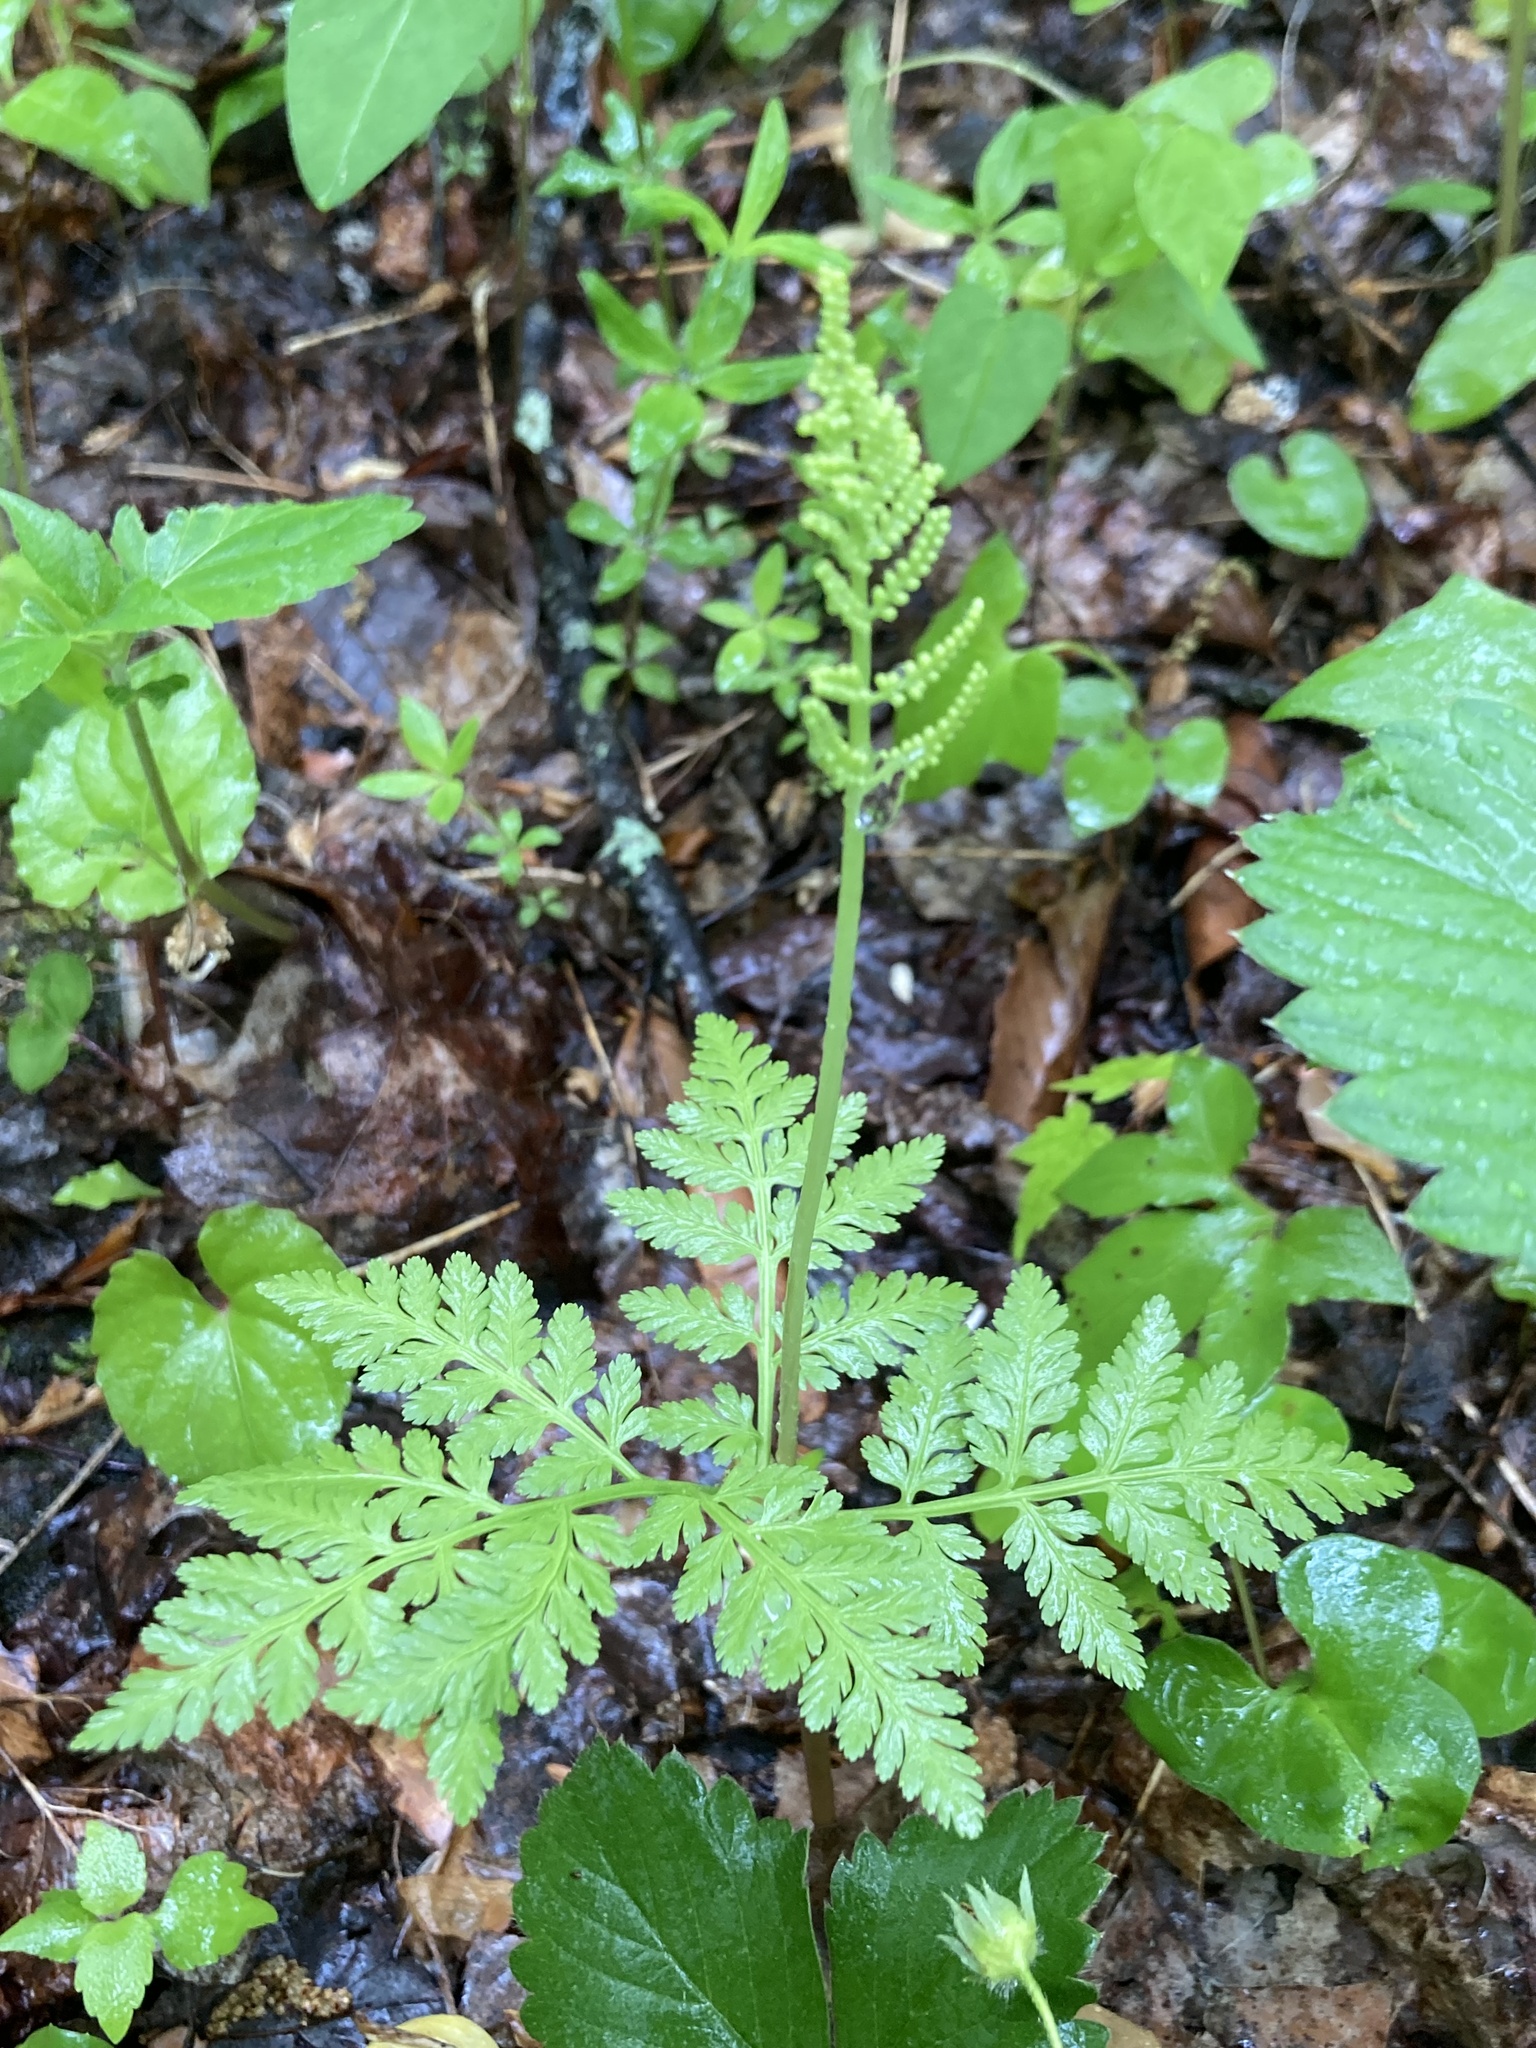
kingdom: Plantae
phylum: Tracheophyta
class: Polypodiopsida
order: Ophioglossales
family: Ophioglossaceae
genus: Botrypus
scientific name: Botrypus virginianus
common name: Common grapefern
